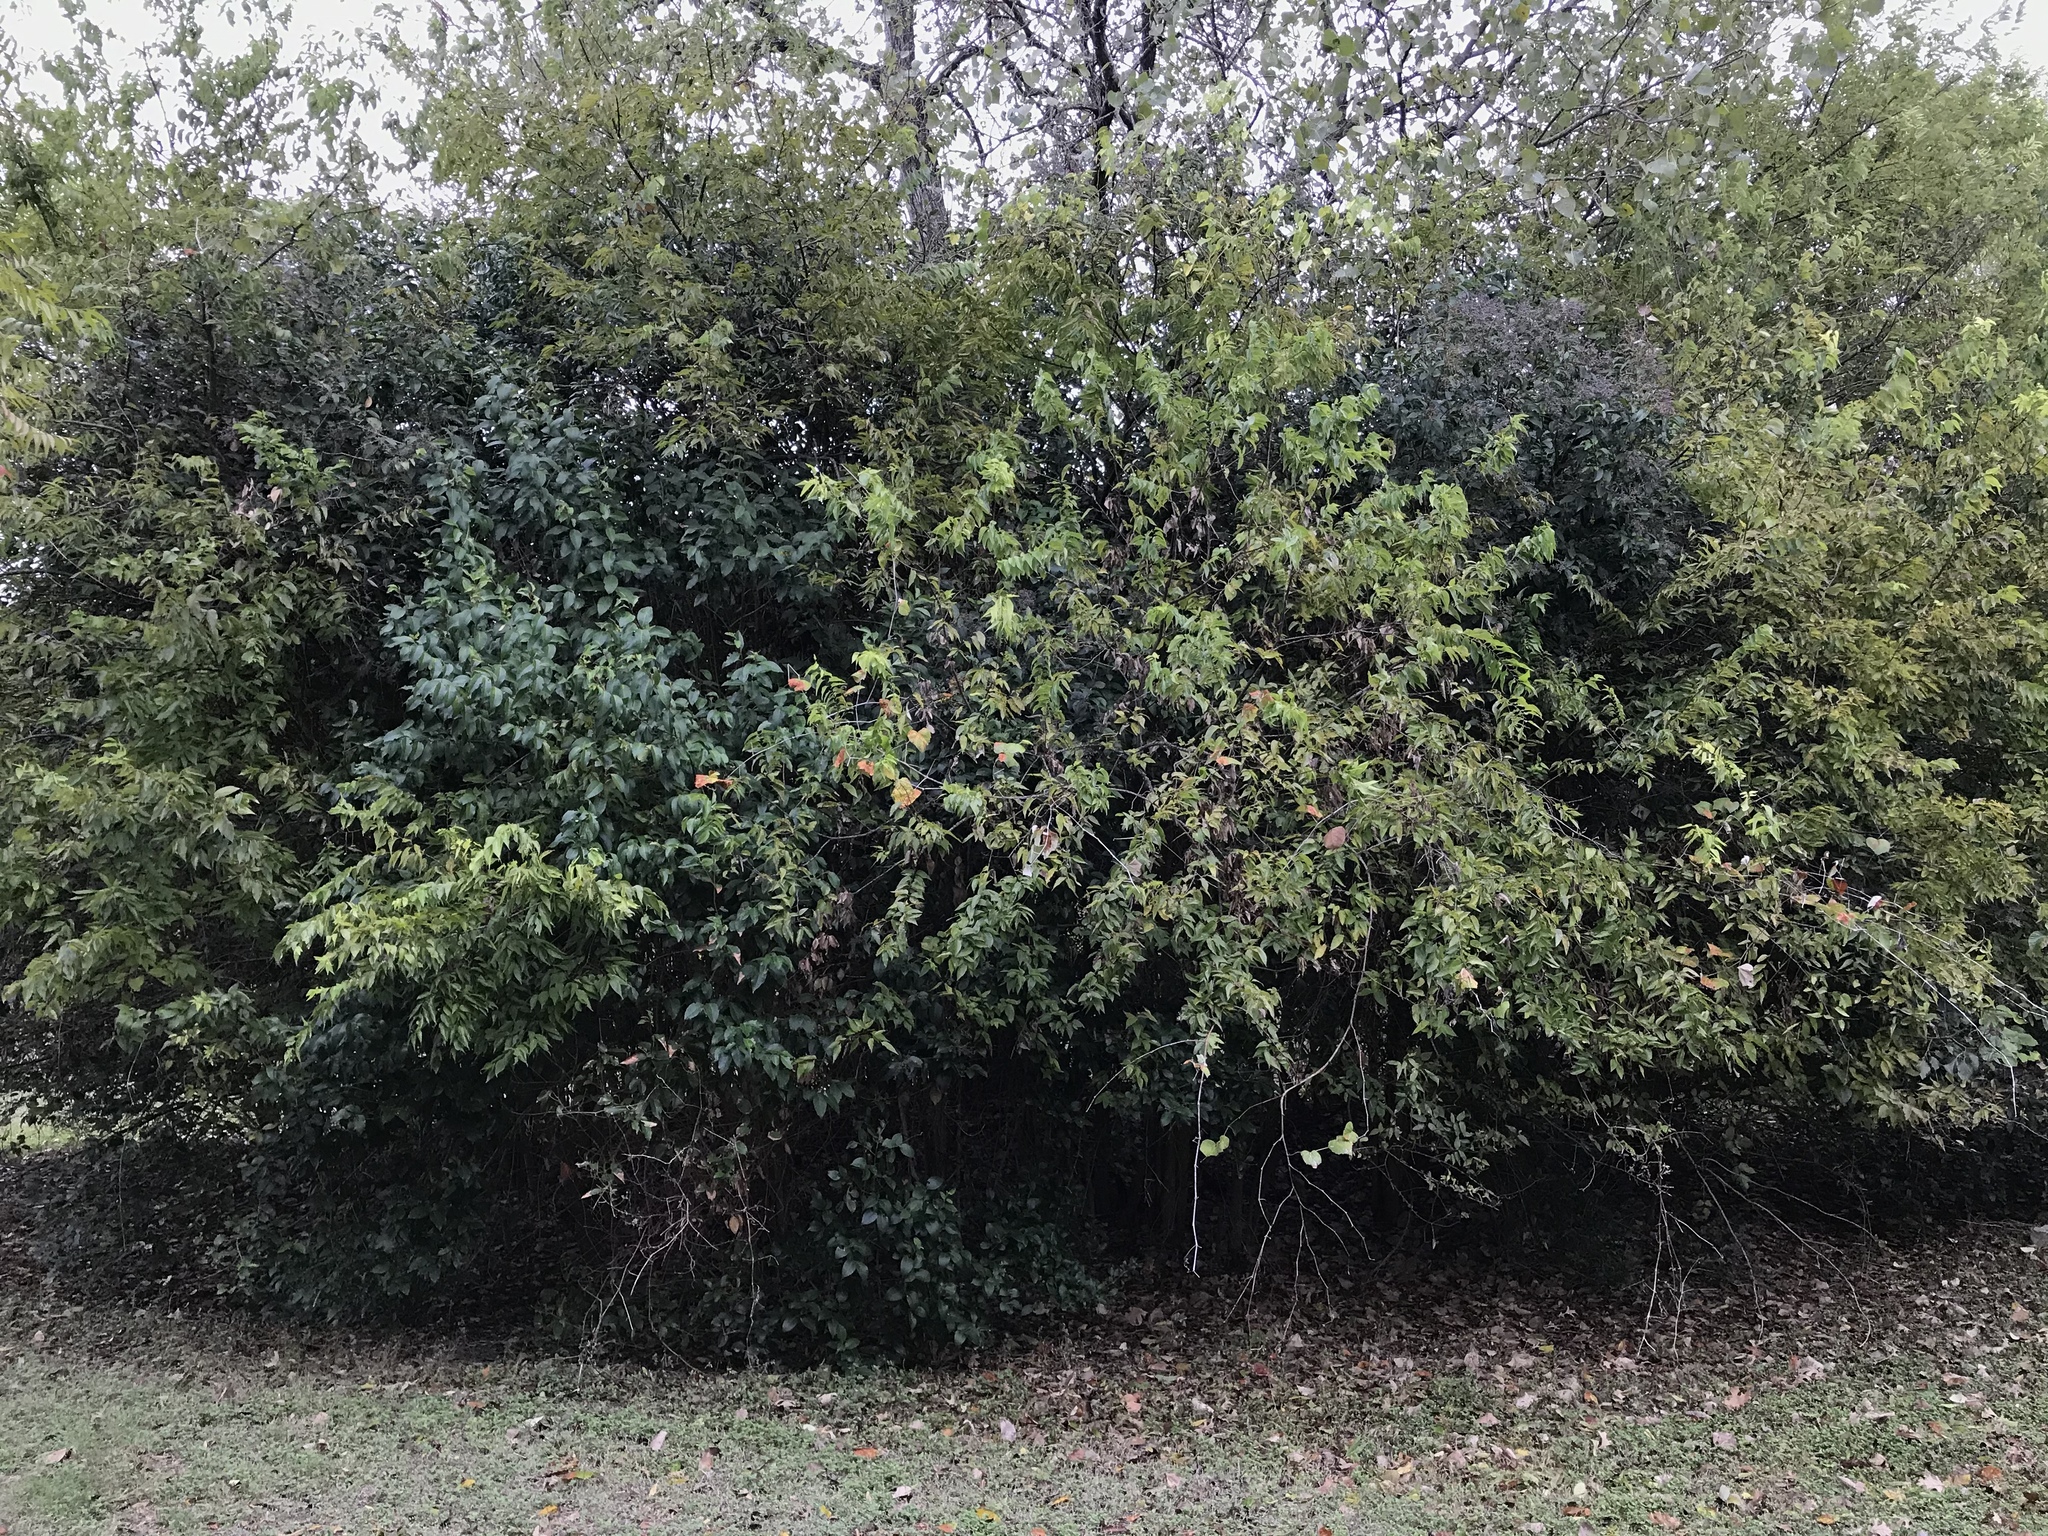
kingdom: Plantae
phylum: Tracheophyta
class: Magnoliopsida
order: Lamiales
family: Oleaceae
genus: Ligustrum
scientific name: Ligustrum lucidum
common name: Glossy privet
